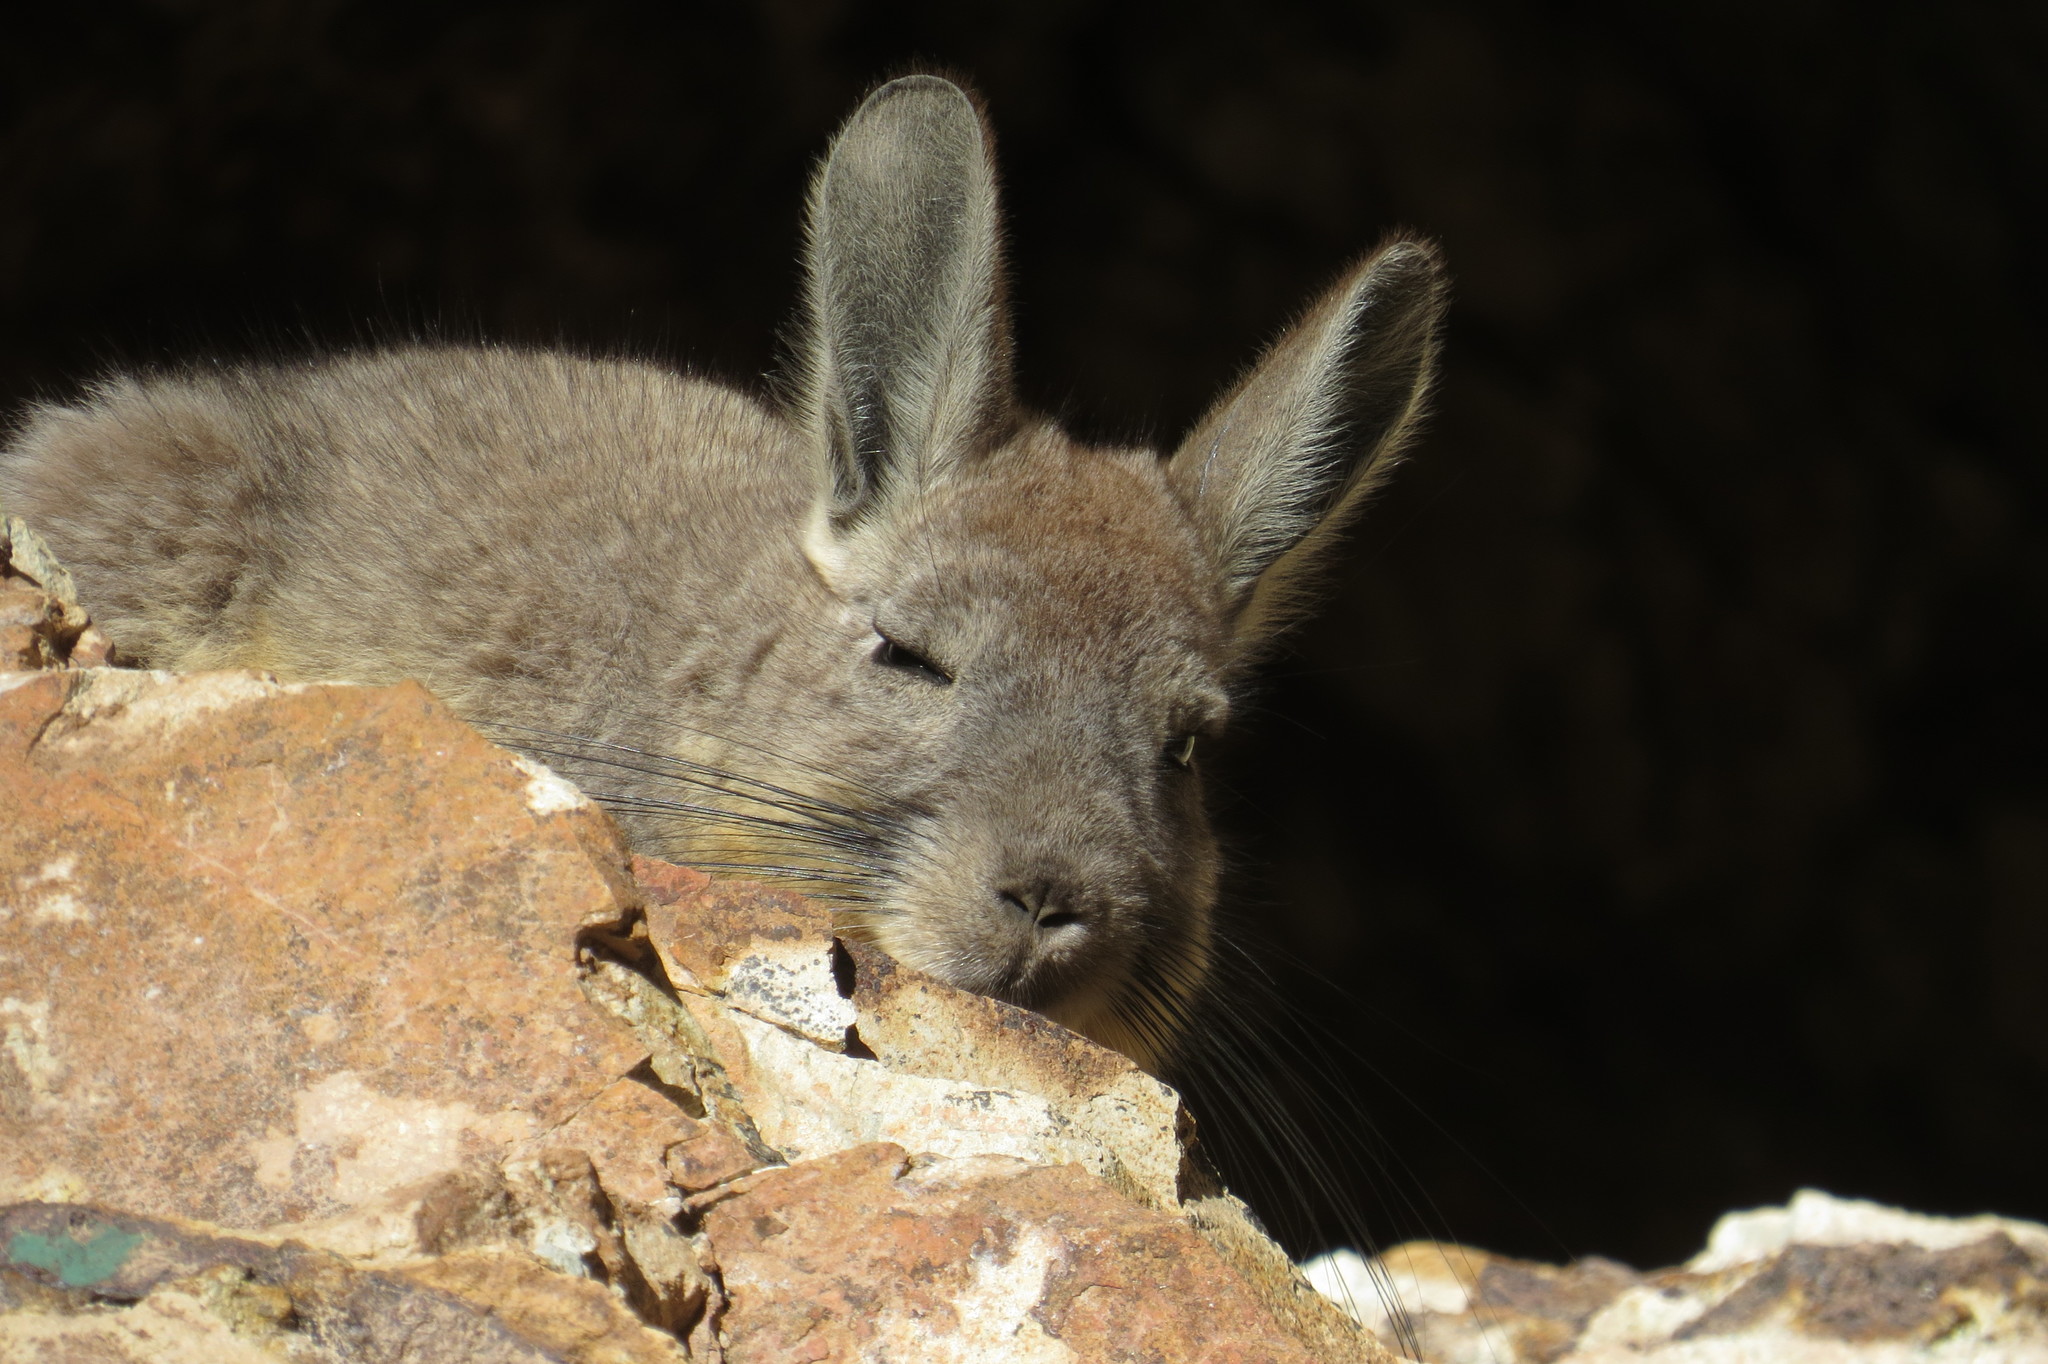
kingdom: Animalia
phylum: Chordata
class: Mammalia
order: Rodentia
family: Chinchillidae
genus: Lagidium
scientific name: Lagidium viscacia
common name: Southern viscacha
